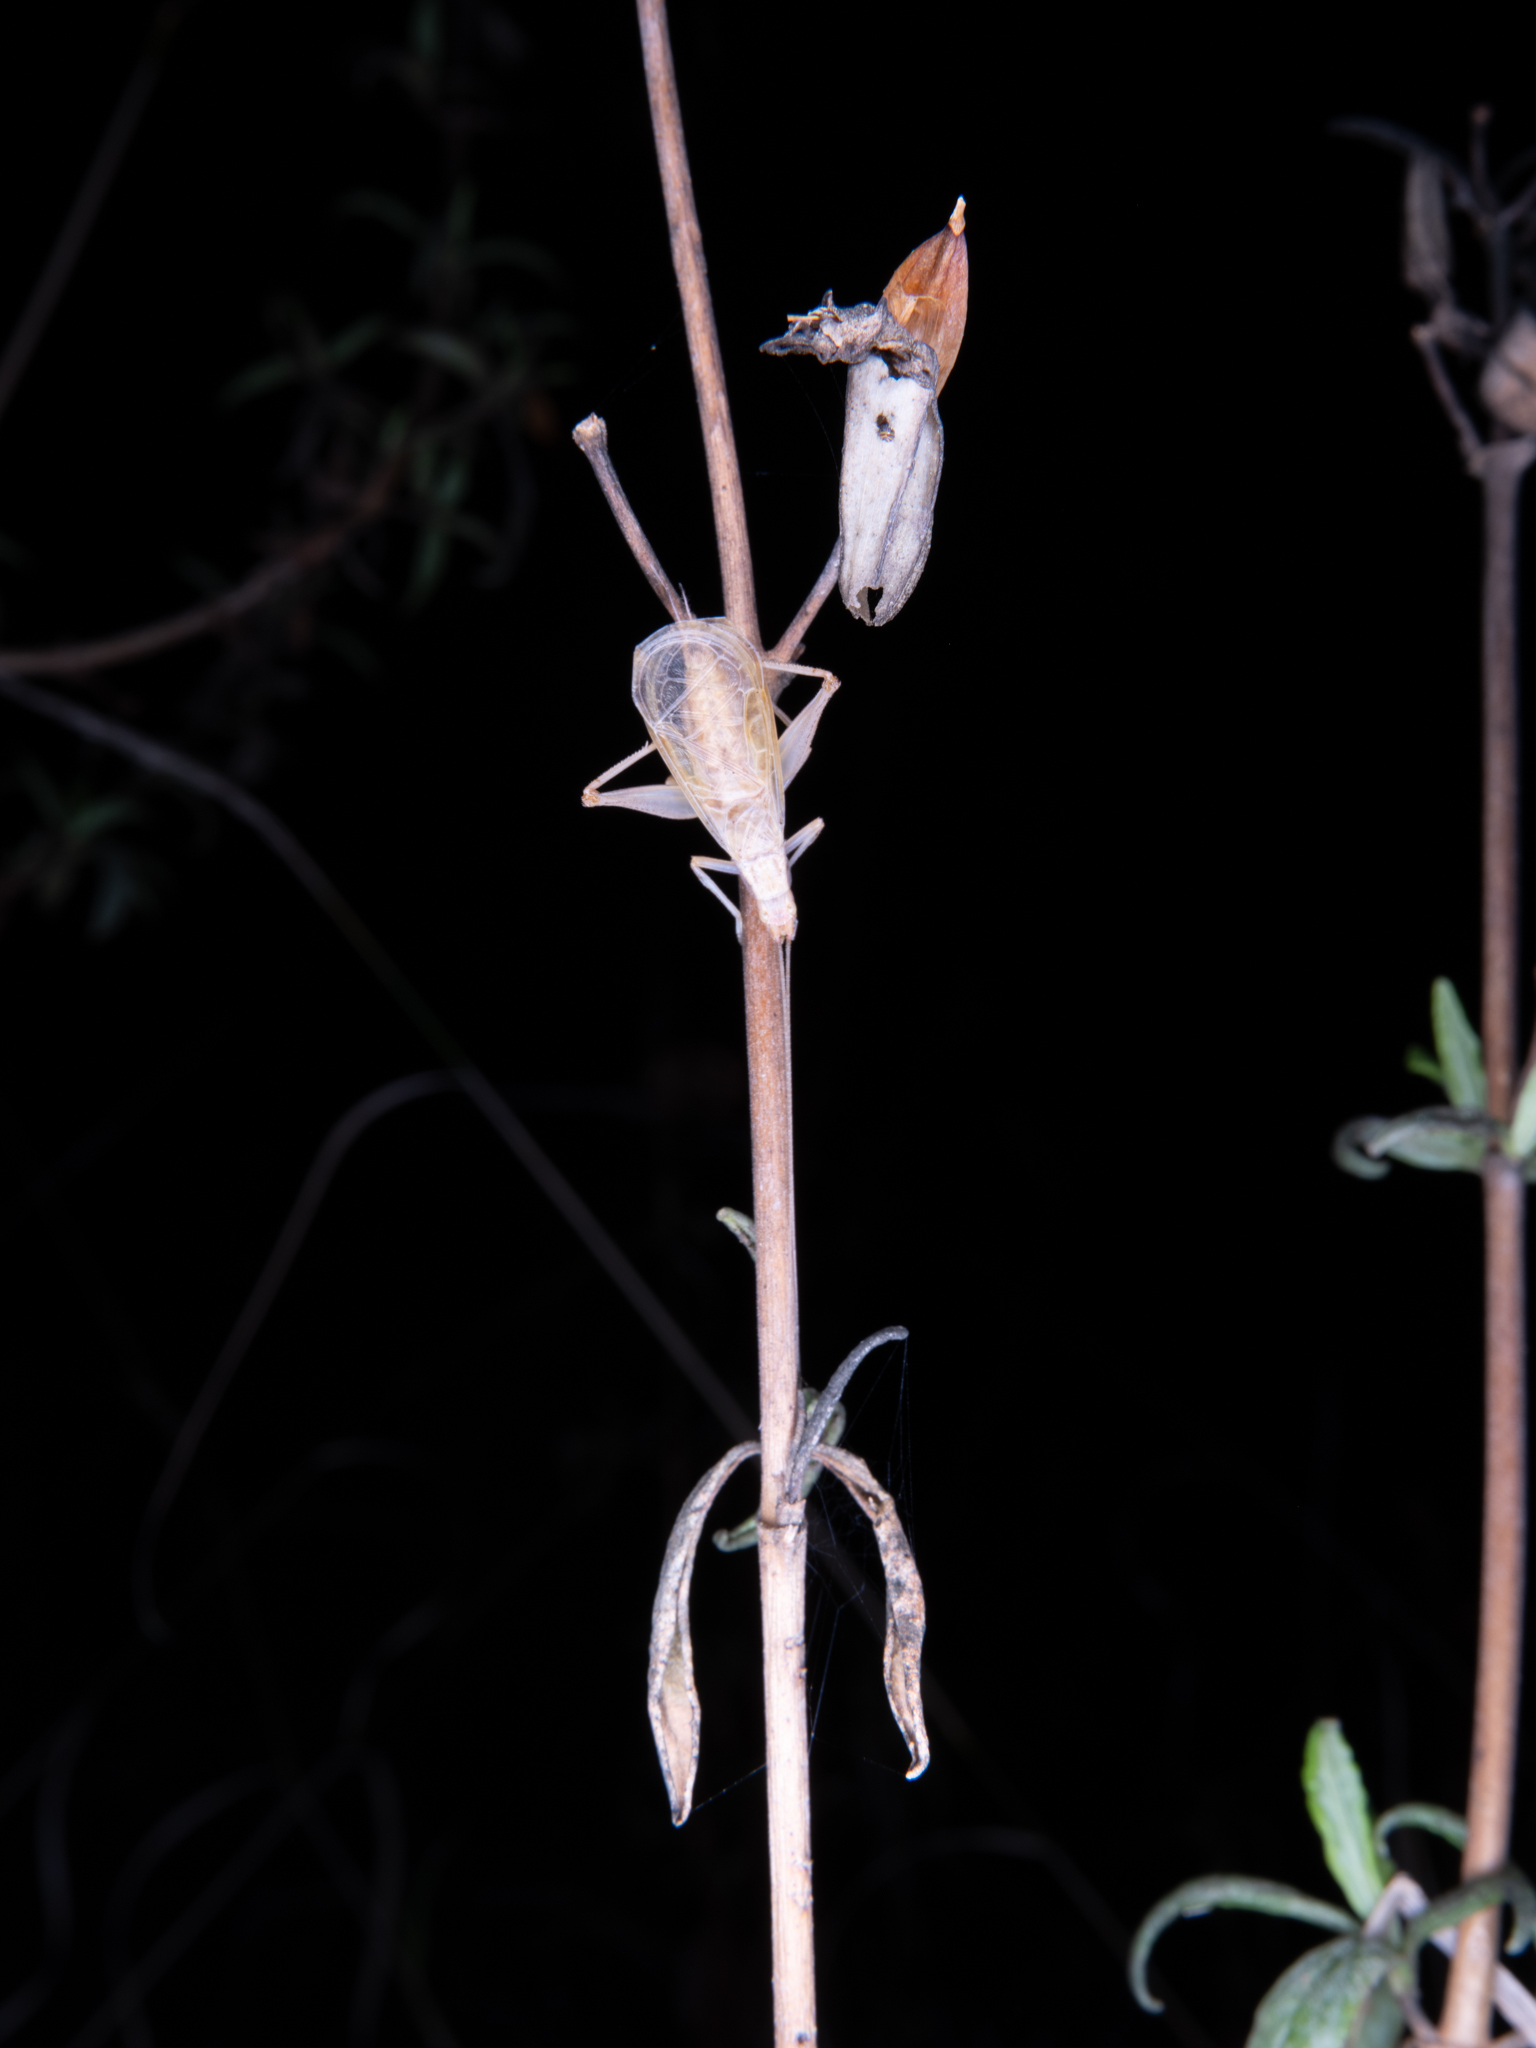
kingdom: Animalia
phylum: Arthropoda
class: Insecta
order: Orthoptera
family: Gryllidae
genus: Oecanthus
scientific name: Oecanthus californicus
